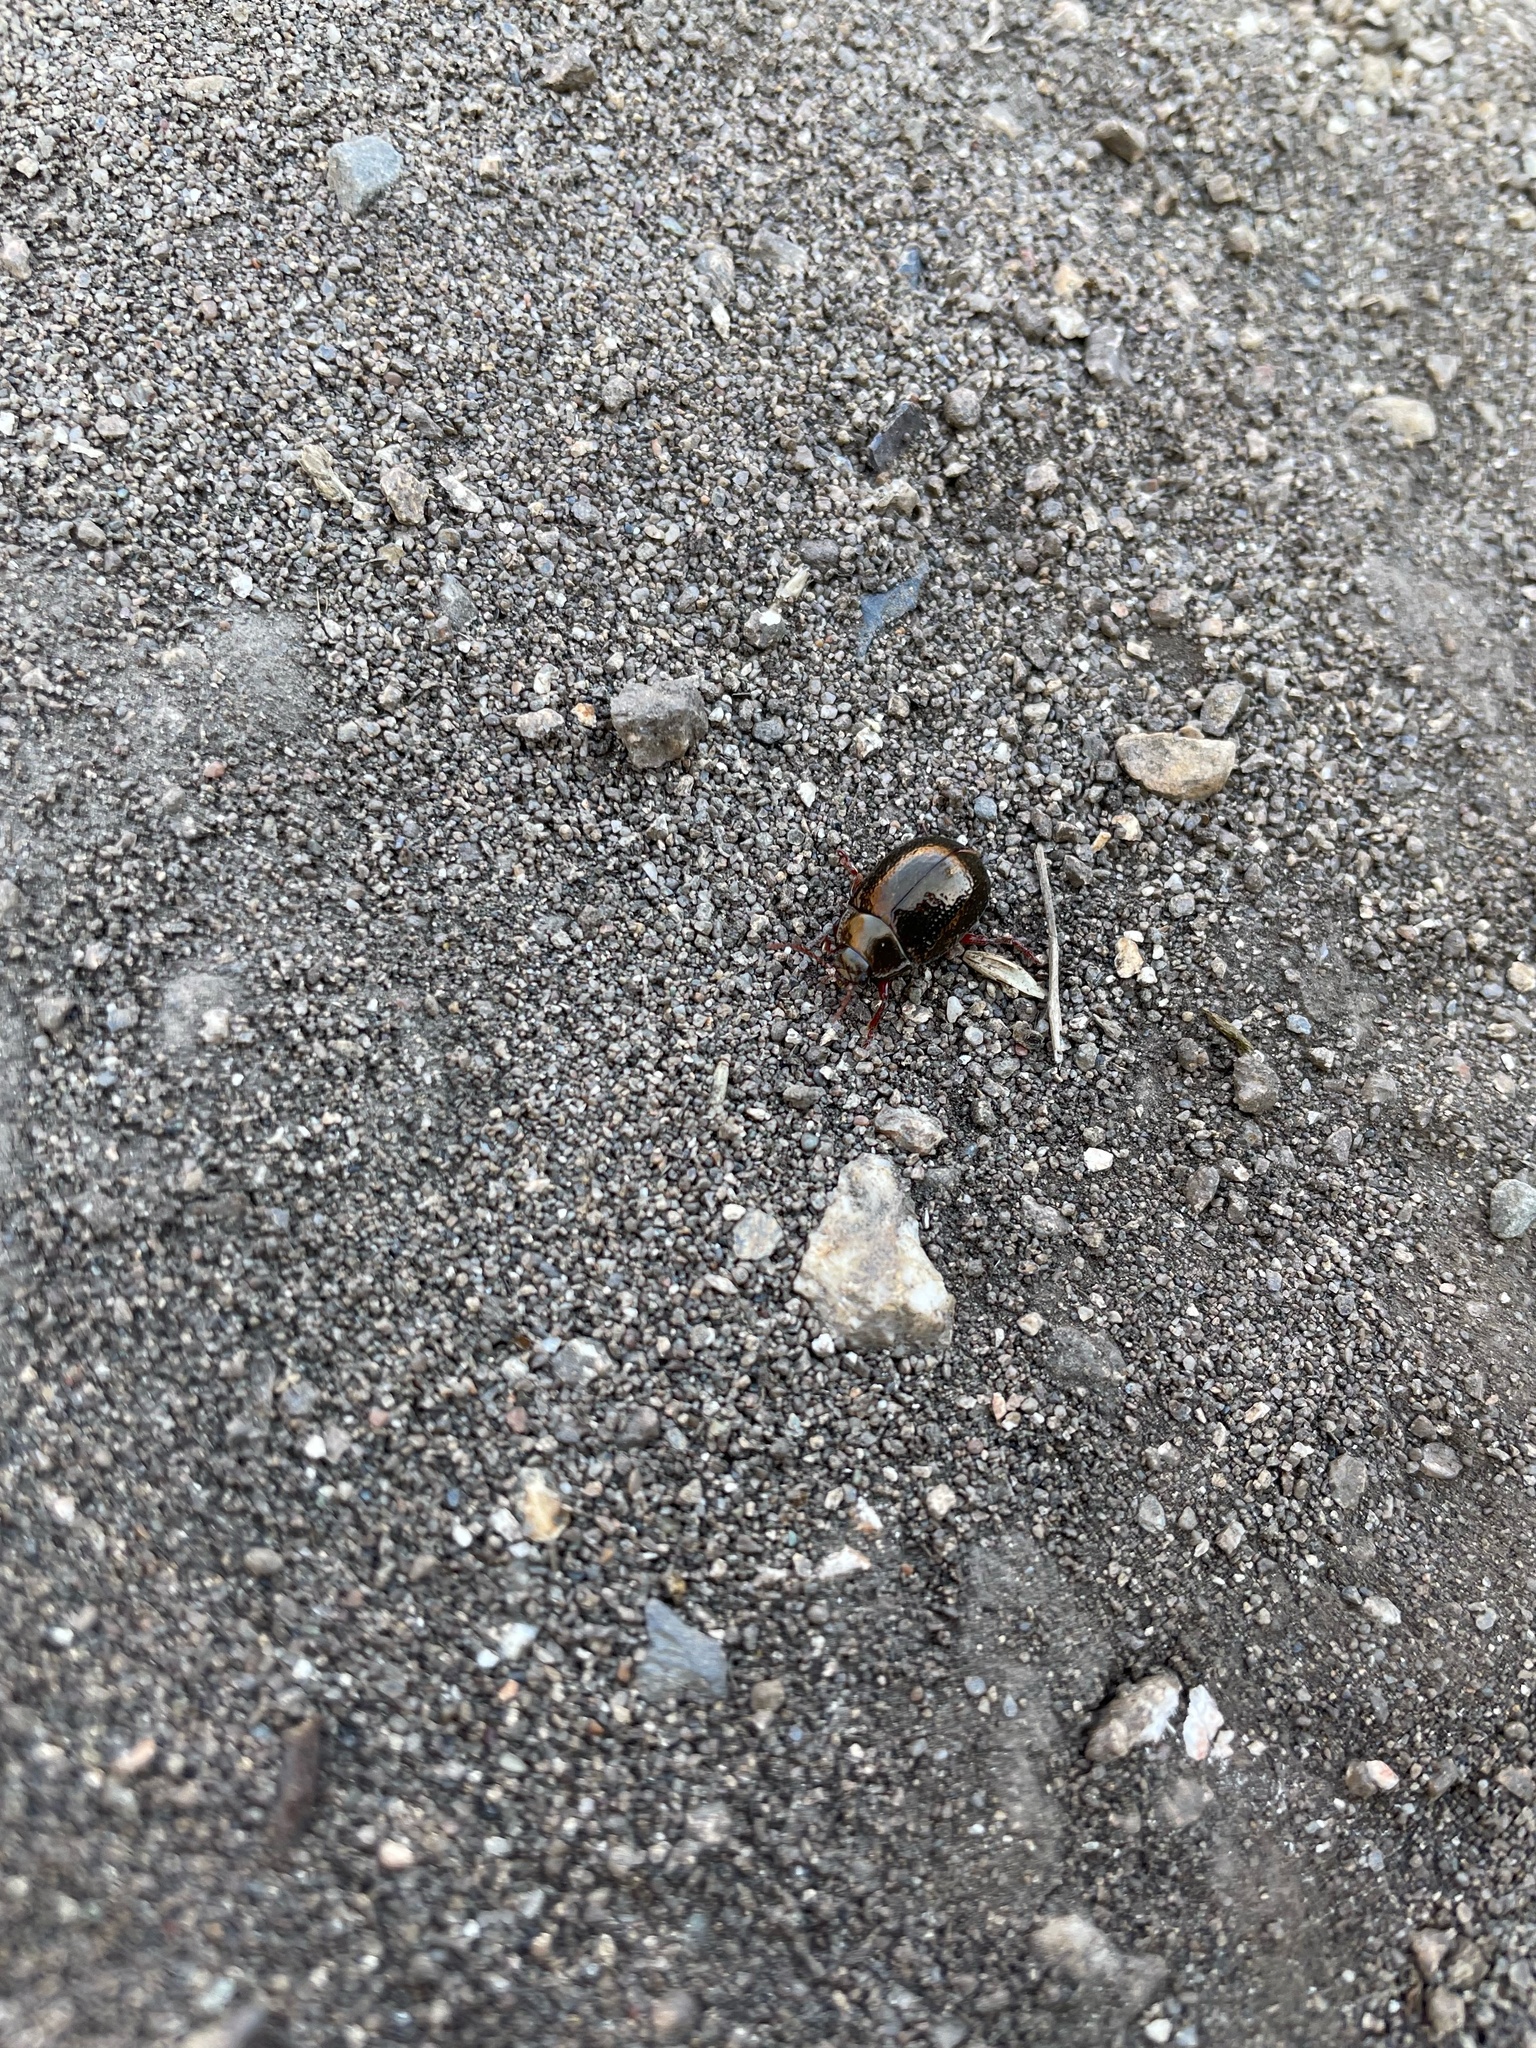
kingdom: Animalia
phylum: Arthropoda
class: Insecta
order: Coleoptera
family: Chrysomelidae
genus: Chrysolina
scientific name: Chrysolina bankii
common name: Leaf beetle
